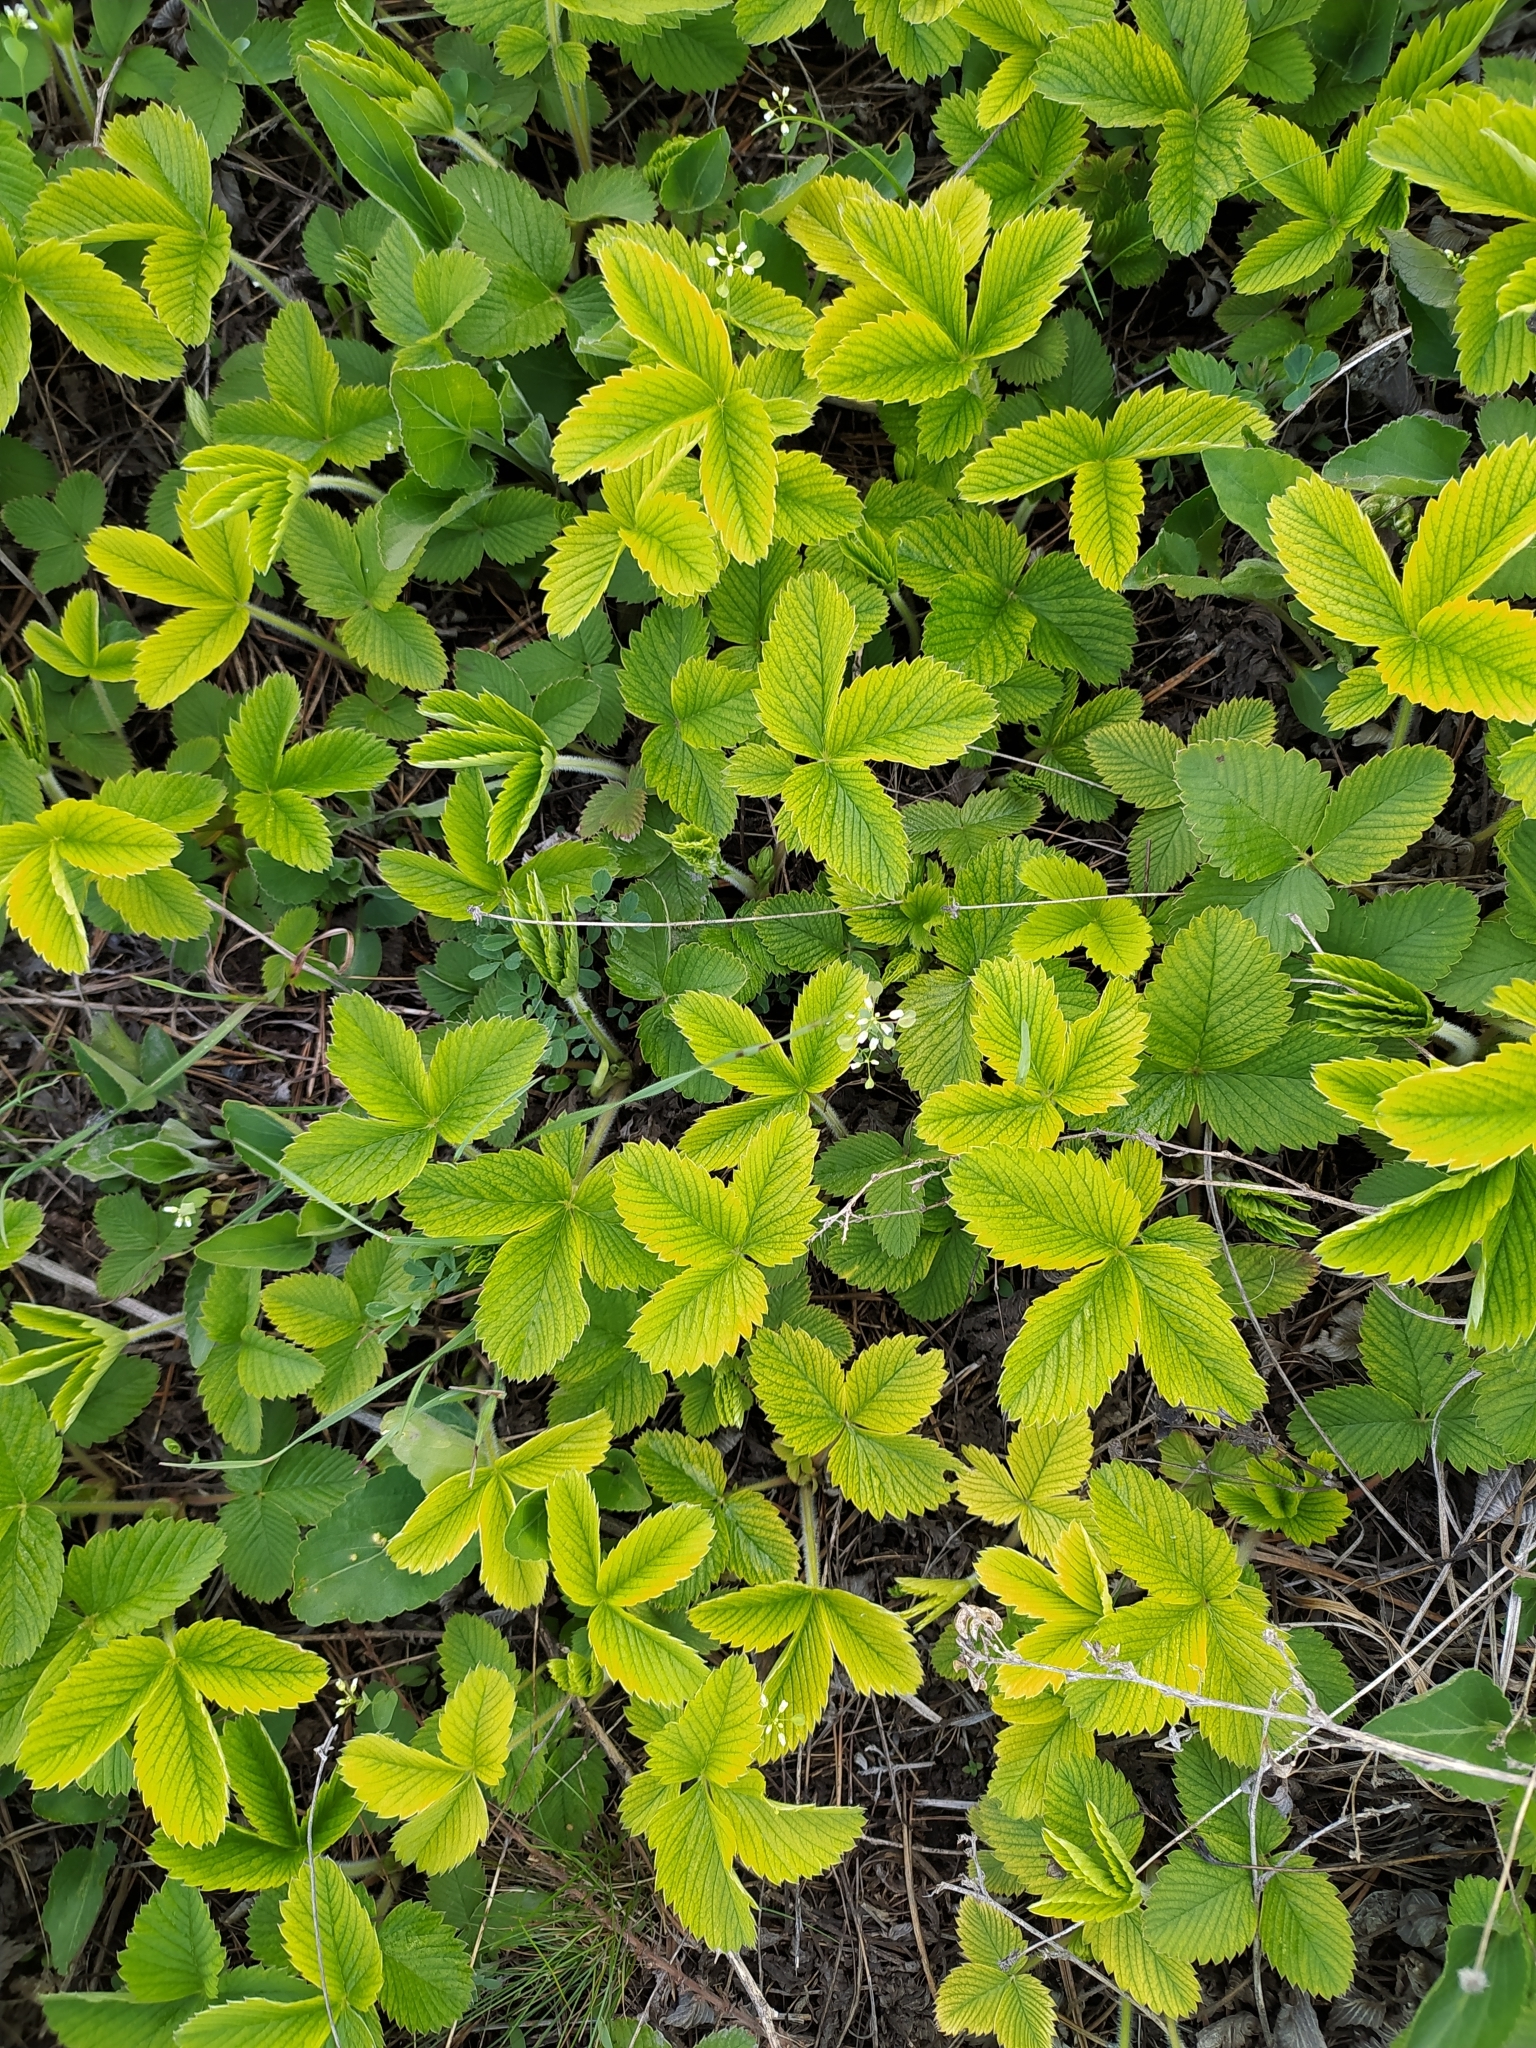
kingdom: Plantae
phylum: Tracheophyta
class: Magnoliopsida
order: Rosales
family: Rosaceae
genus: Fragaria
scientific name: Fragaria viridis
